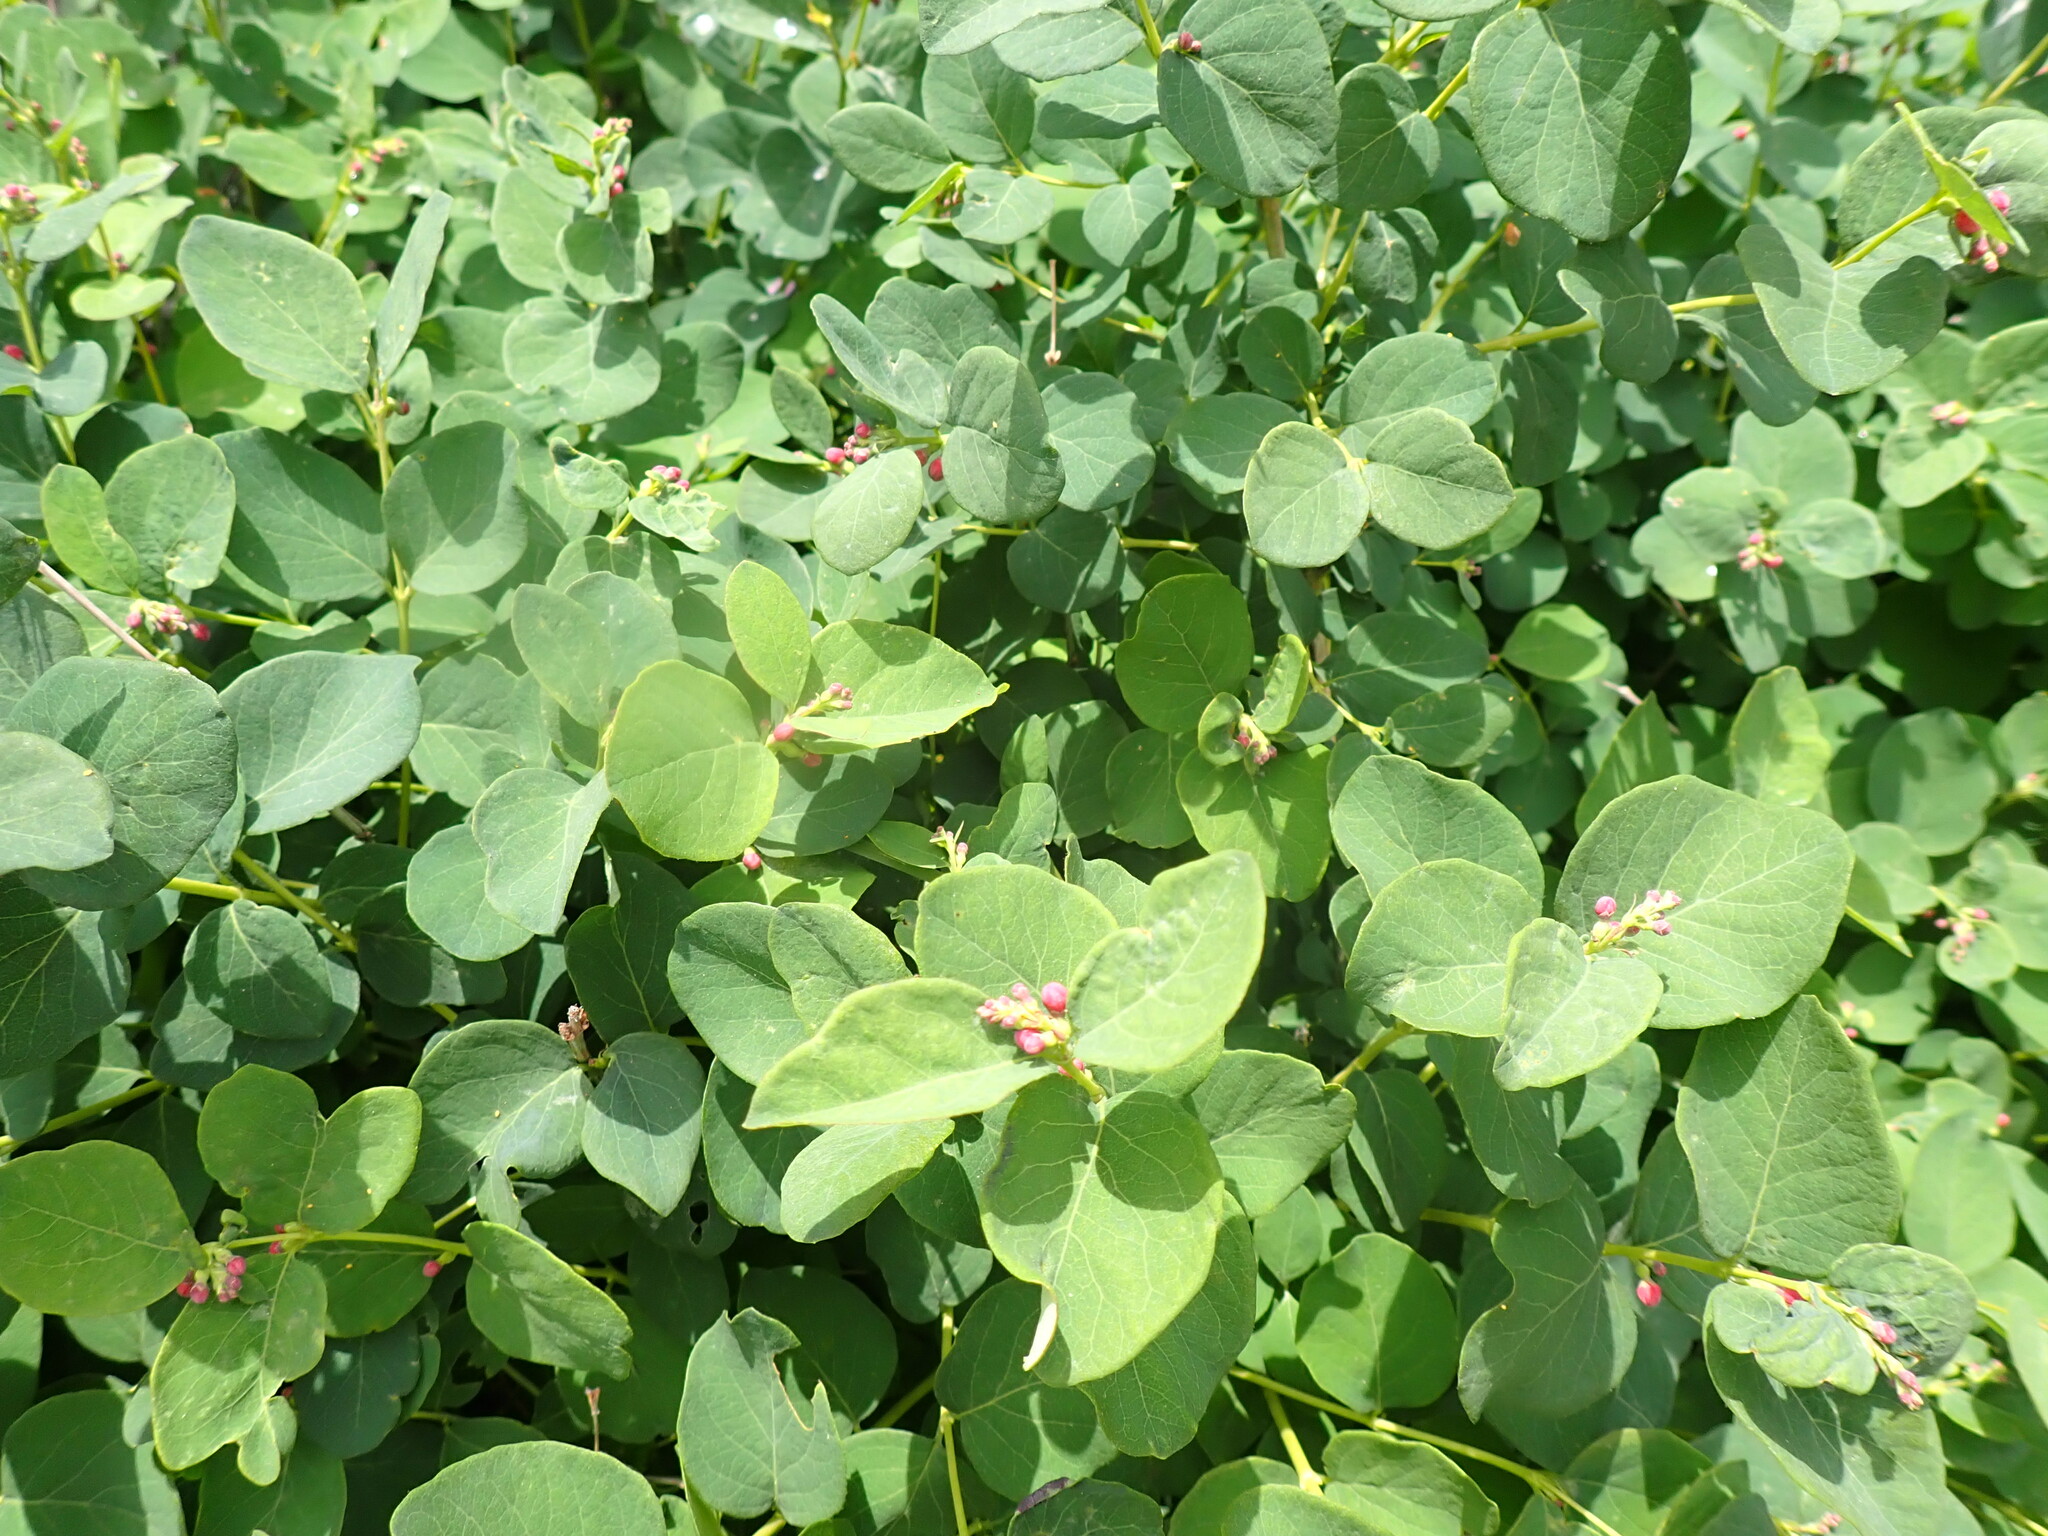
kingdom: Plantae
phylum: Tracheophyta
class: Magnoliopsida
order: Dipsacales
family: Caprifoliaceae
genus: Symphoricarpos
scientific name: Symphoricarpos occidentalis
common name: Wolfberry
